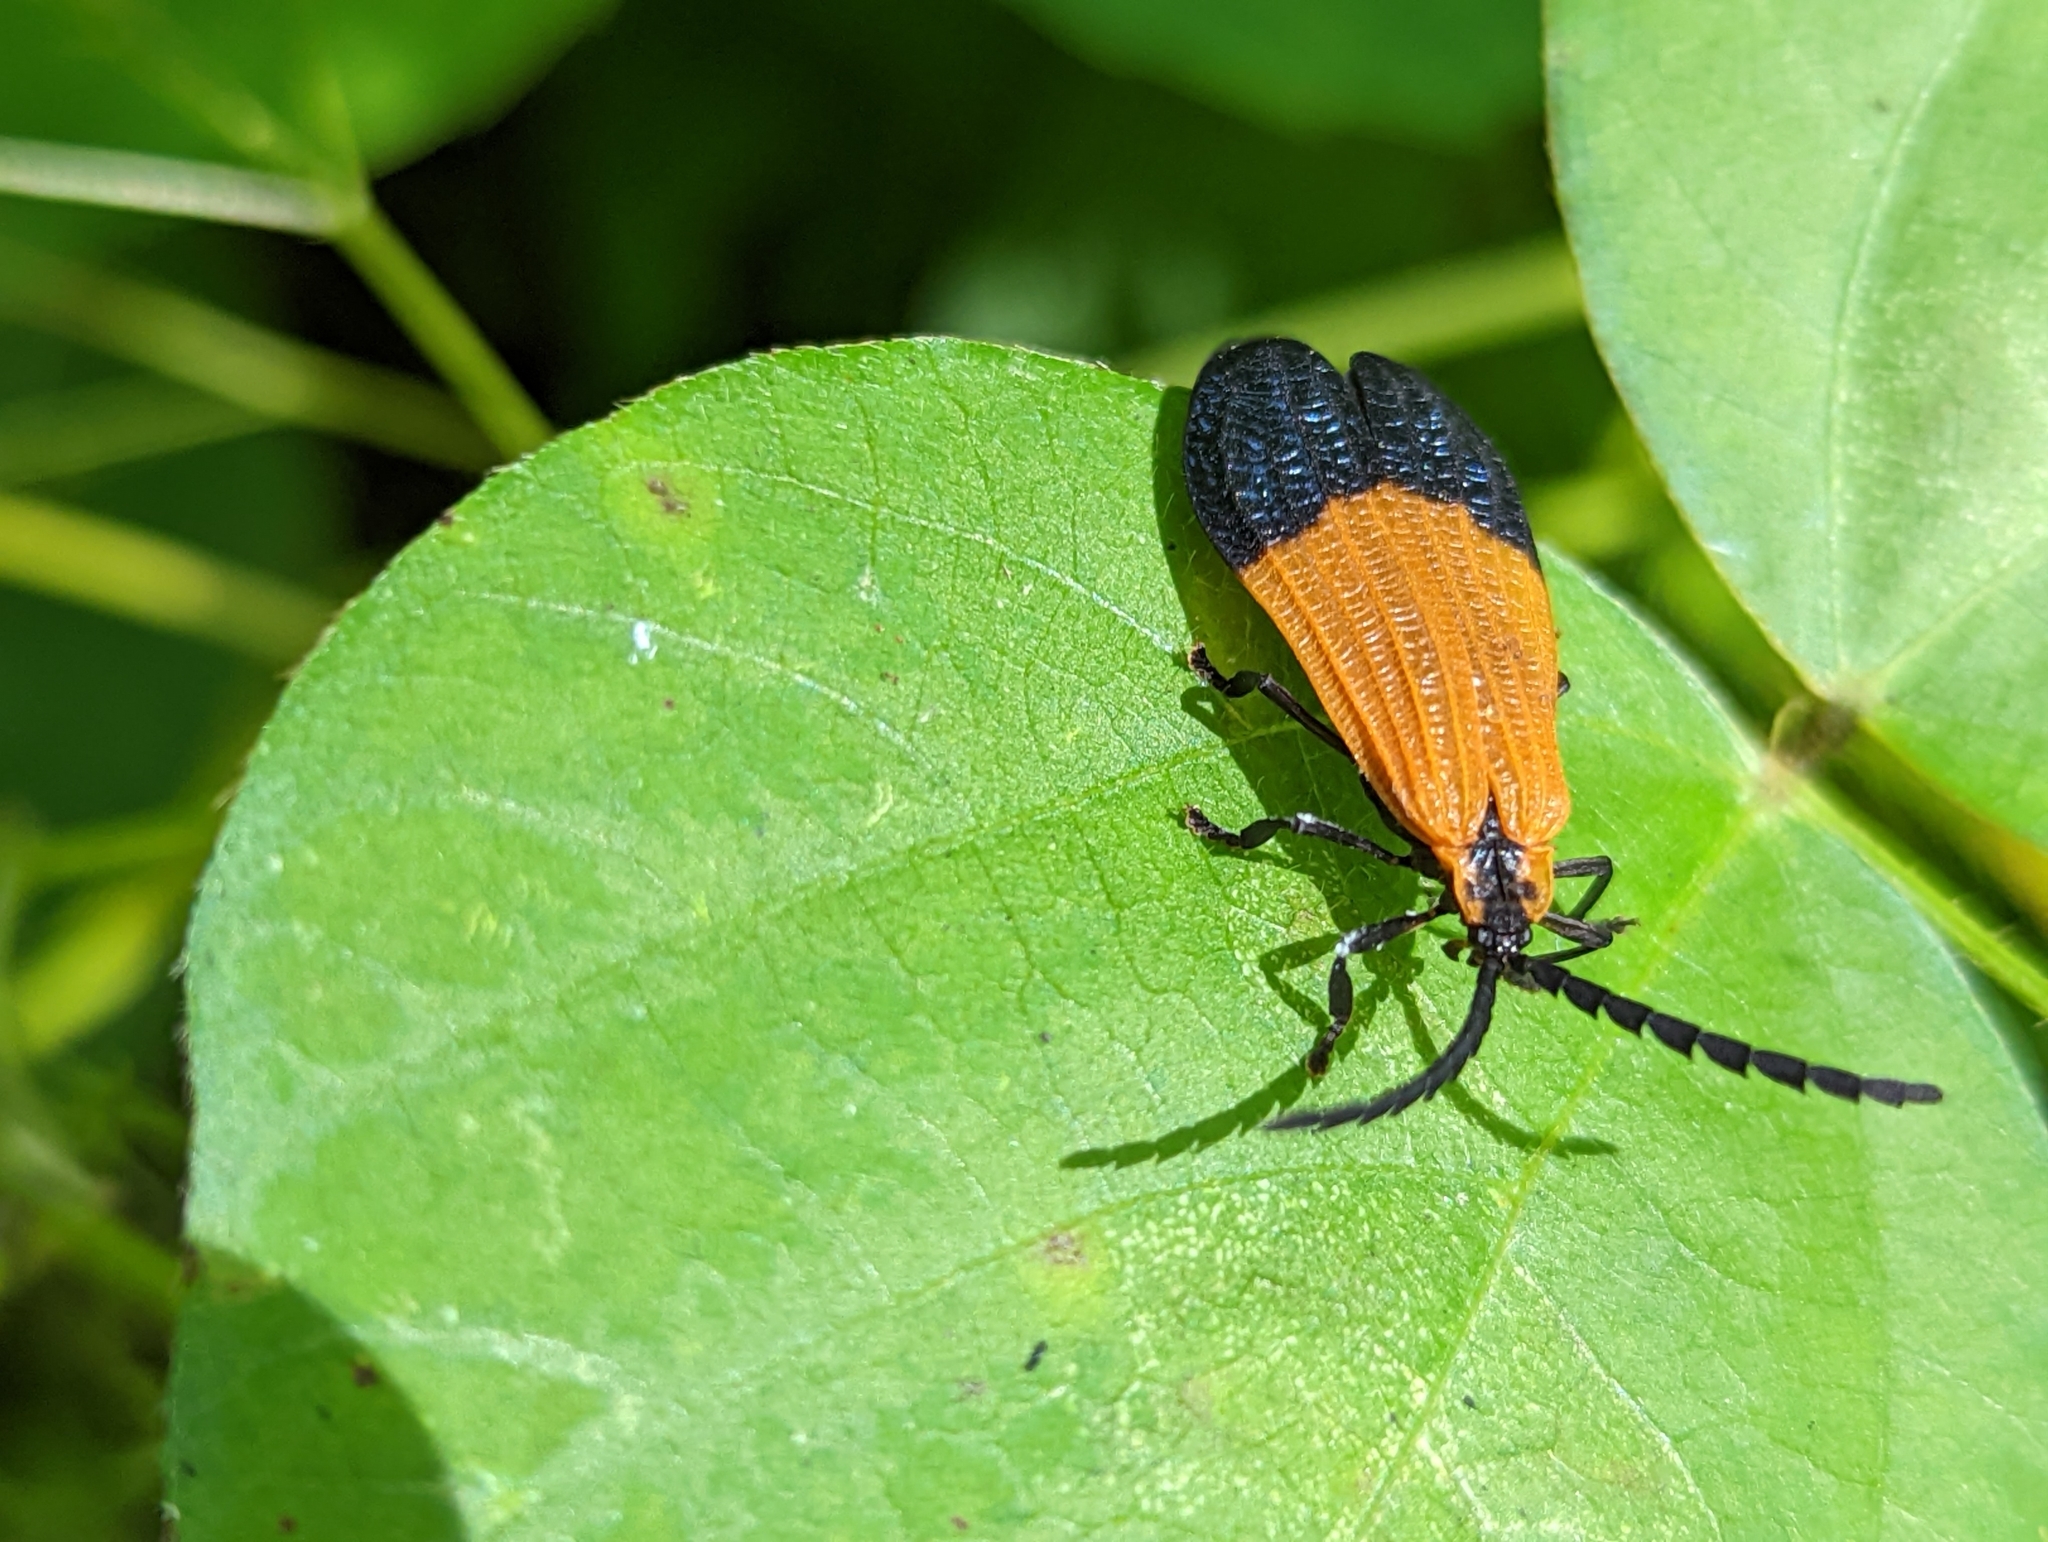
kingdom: Animalia
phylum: Arthropoda
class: Insecta
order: Coleoptera
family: Lycidae
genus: Calopteron
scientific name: Calopteron terminale
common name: End band net-winged beetle
